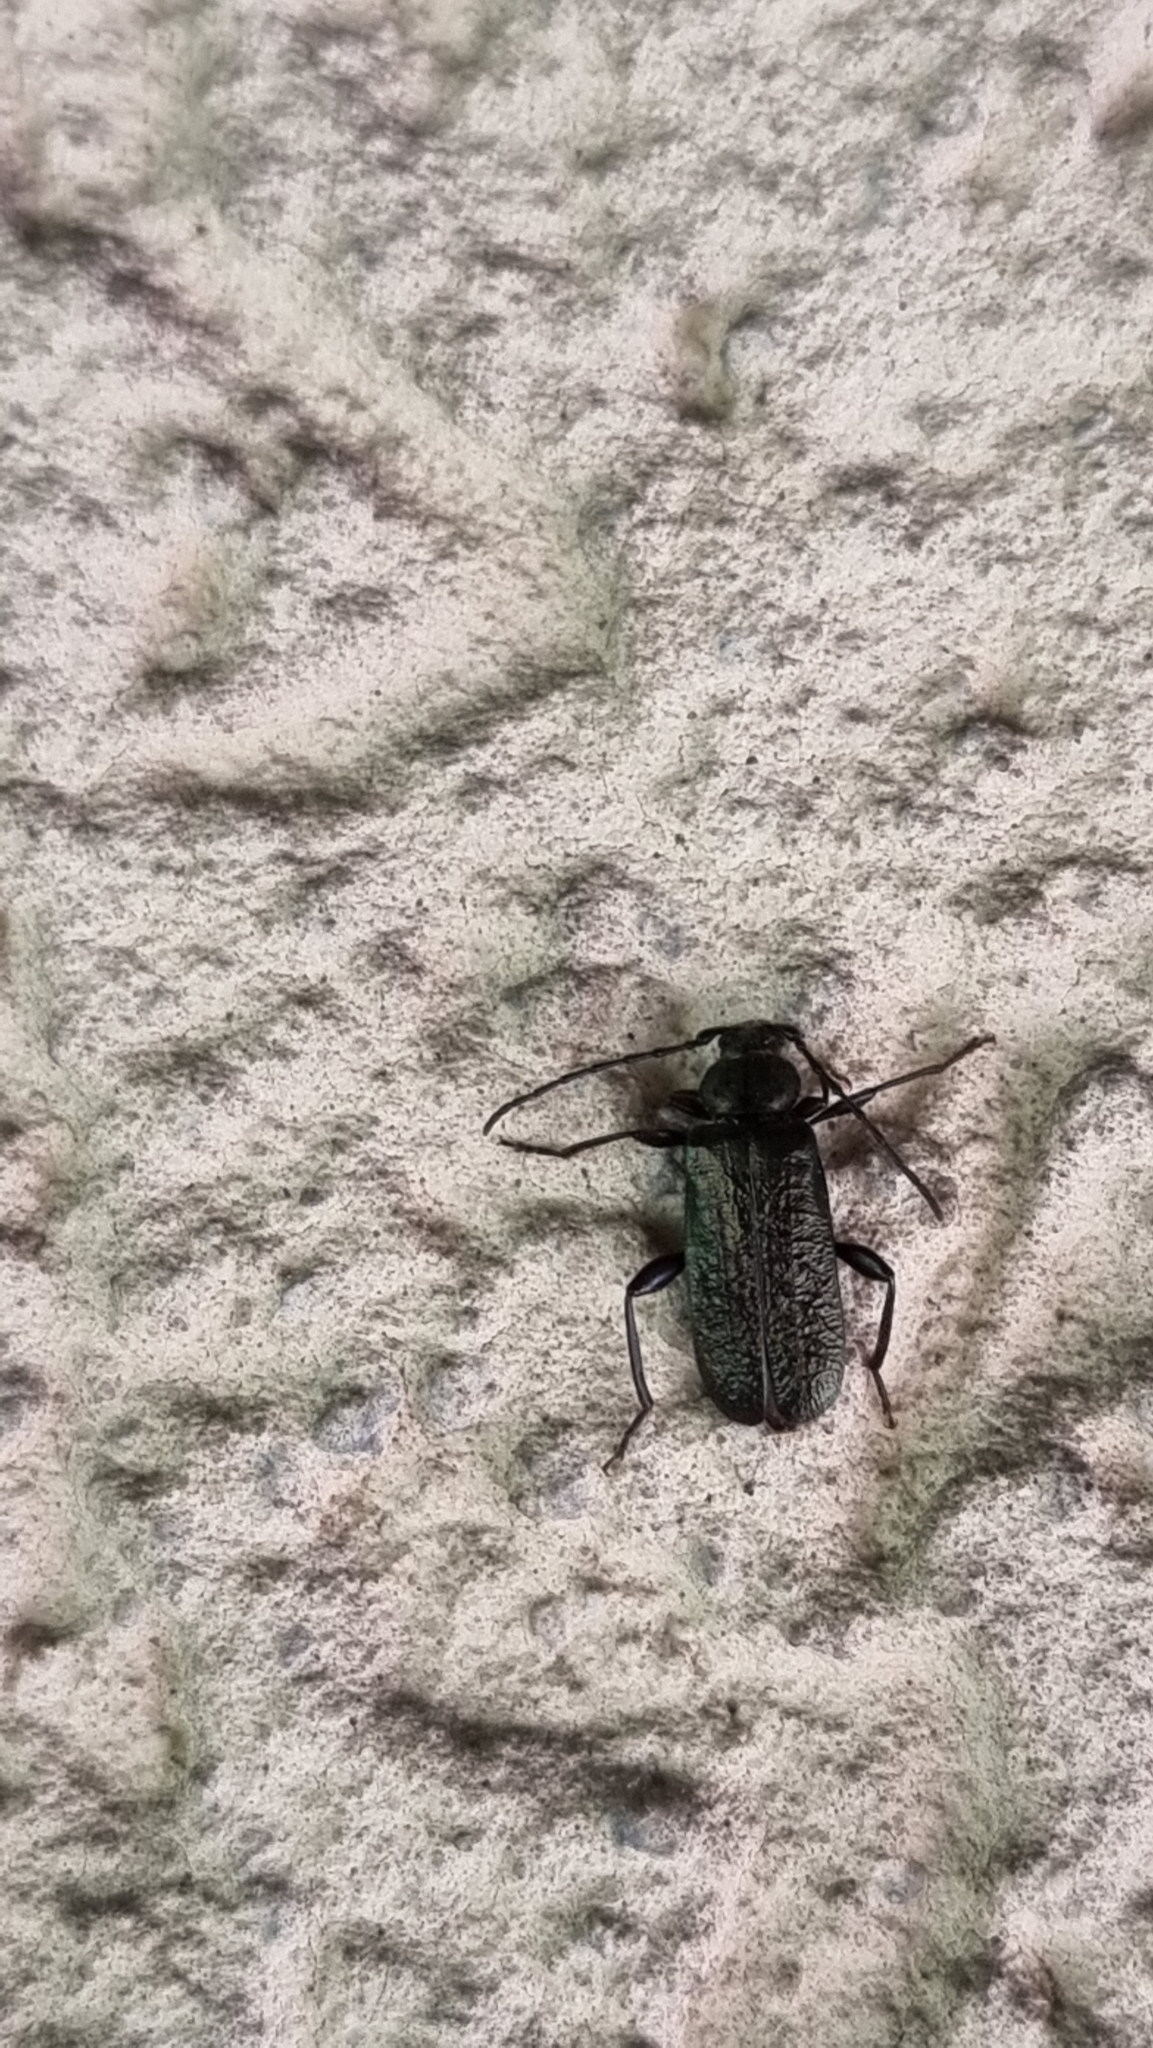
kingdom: Animalia
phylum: Arthropoda
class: Insecta
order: Coleoptera
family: Cerambycidae
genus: Callidium
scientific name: Callidium aeneum
